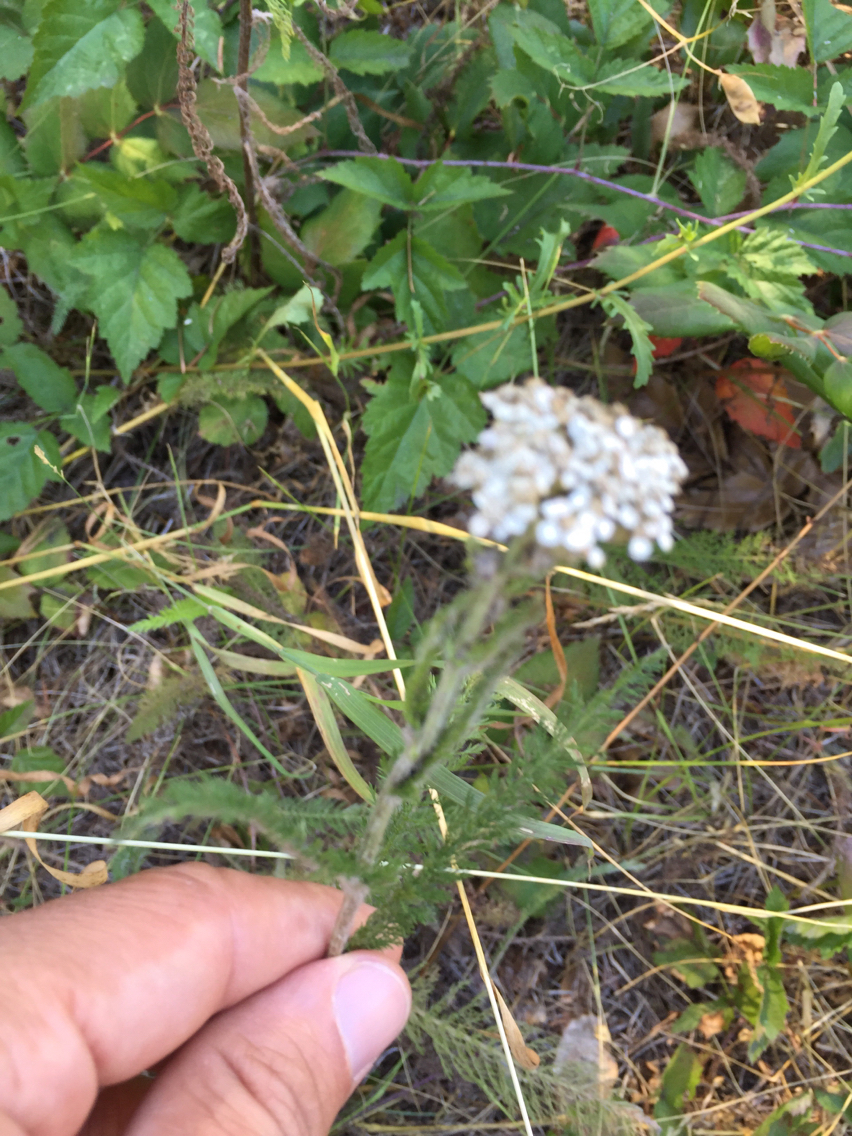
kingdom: Plantae
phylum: Tracheophyta
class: Magnoliopsida
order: Asterales
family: Asteraceae
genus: Achillea
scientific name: Achillea millefolium
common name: Yarrow
